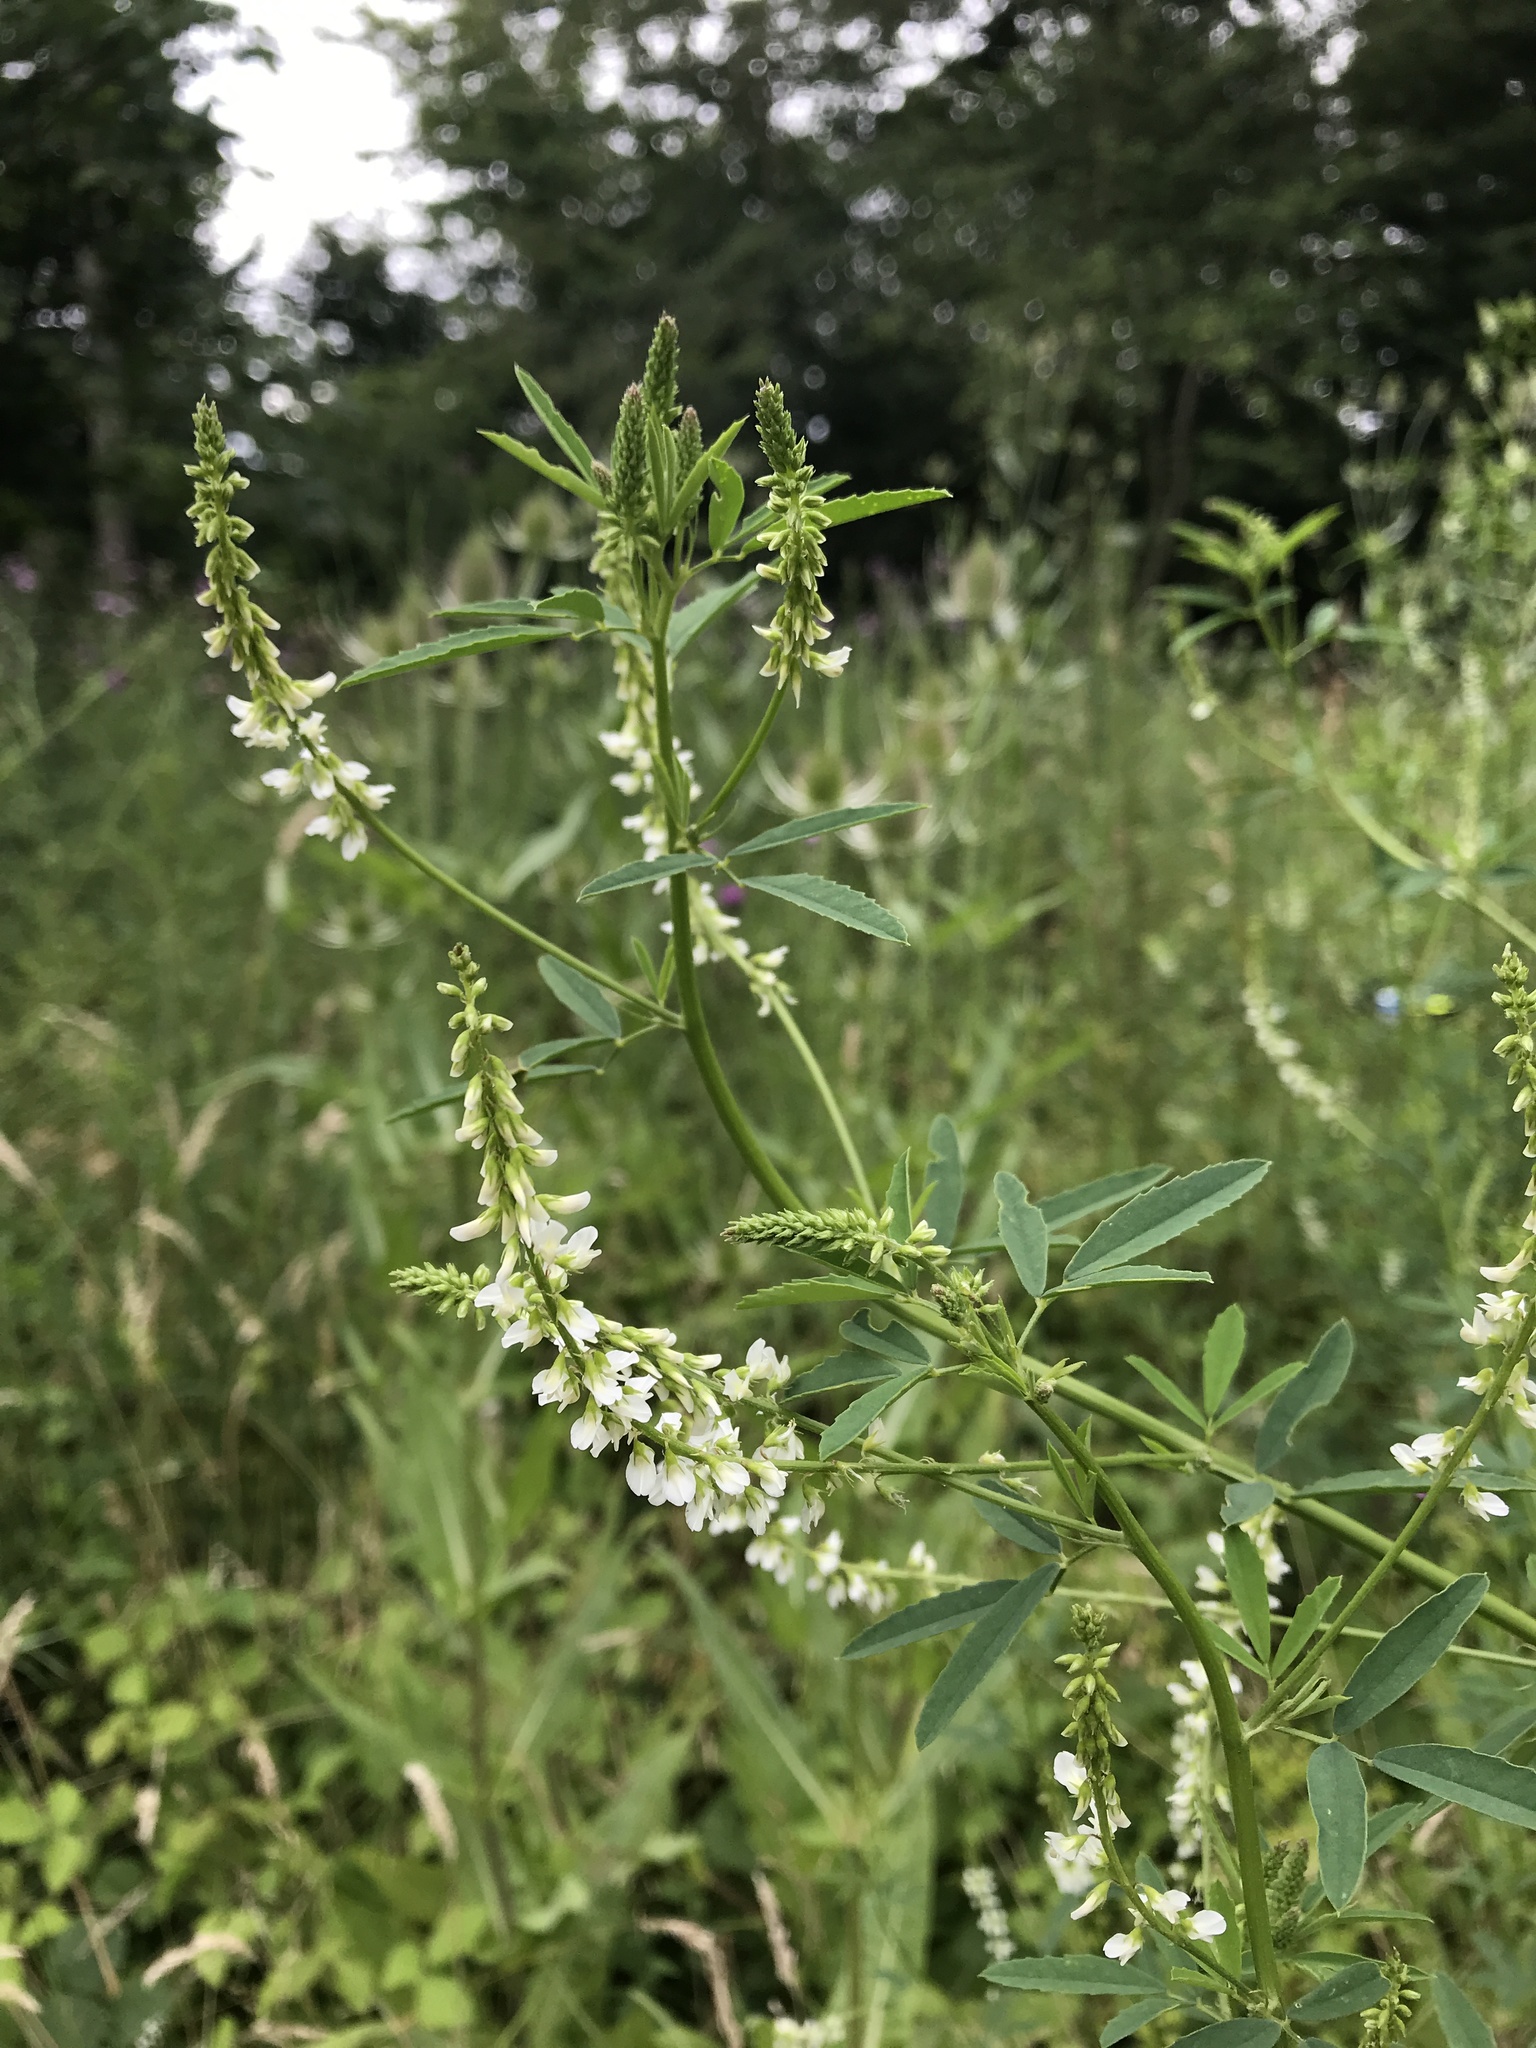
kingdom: Plantae
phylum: Tracheophyta
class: Magnoliopsida
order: Fabales
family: Fabaceae
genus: Melilotus
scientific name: Melilotus albus
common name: White melilot
